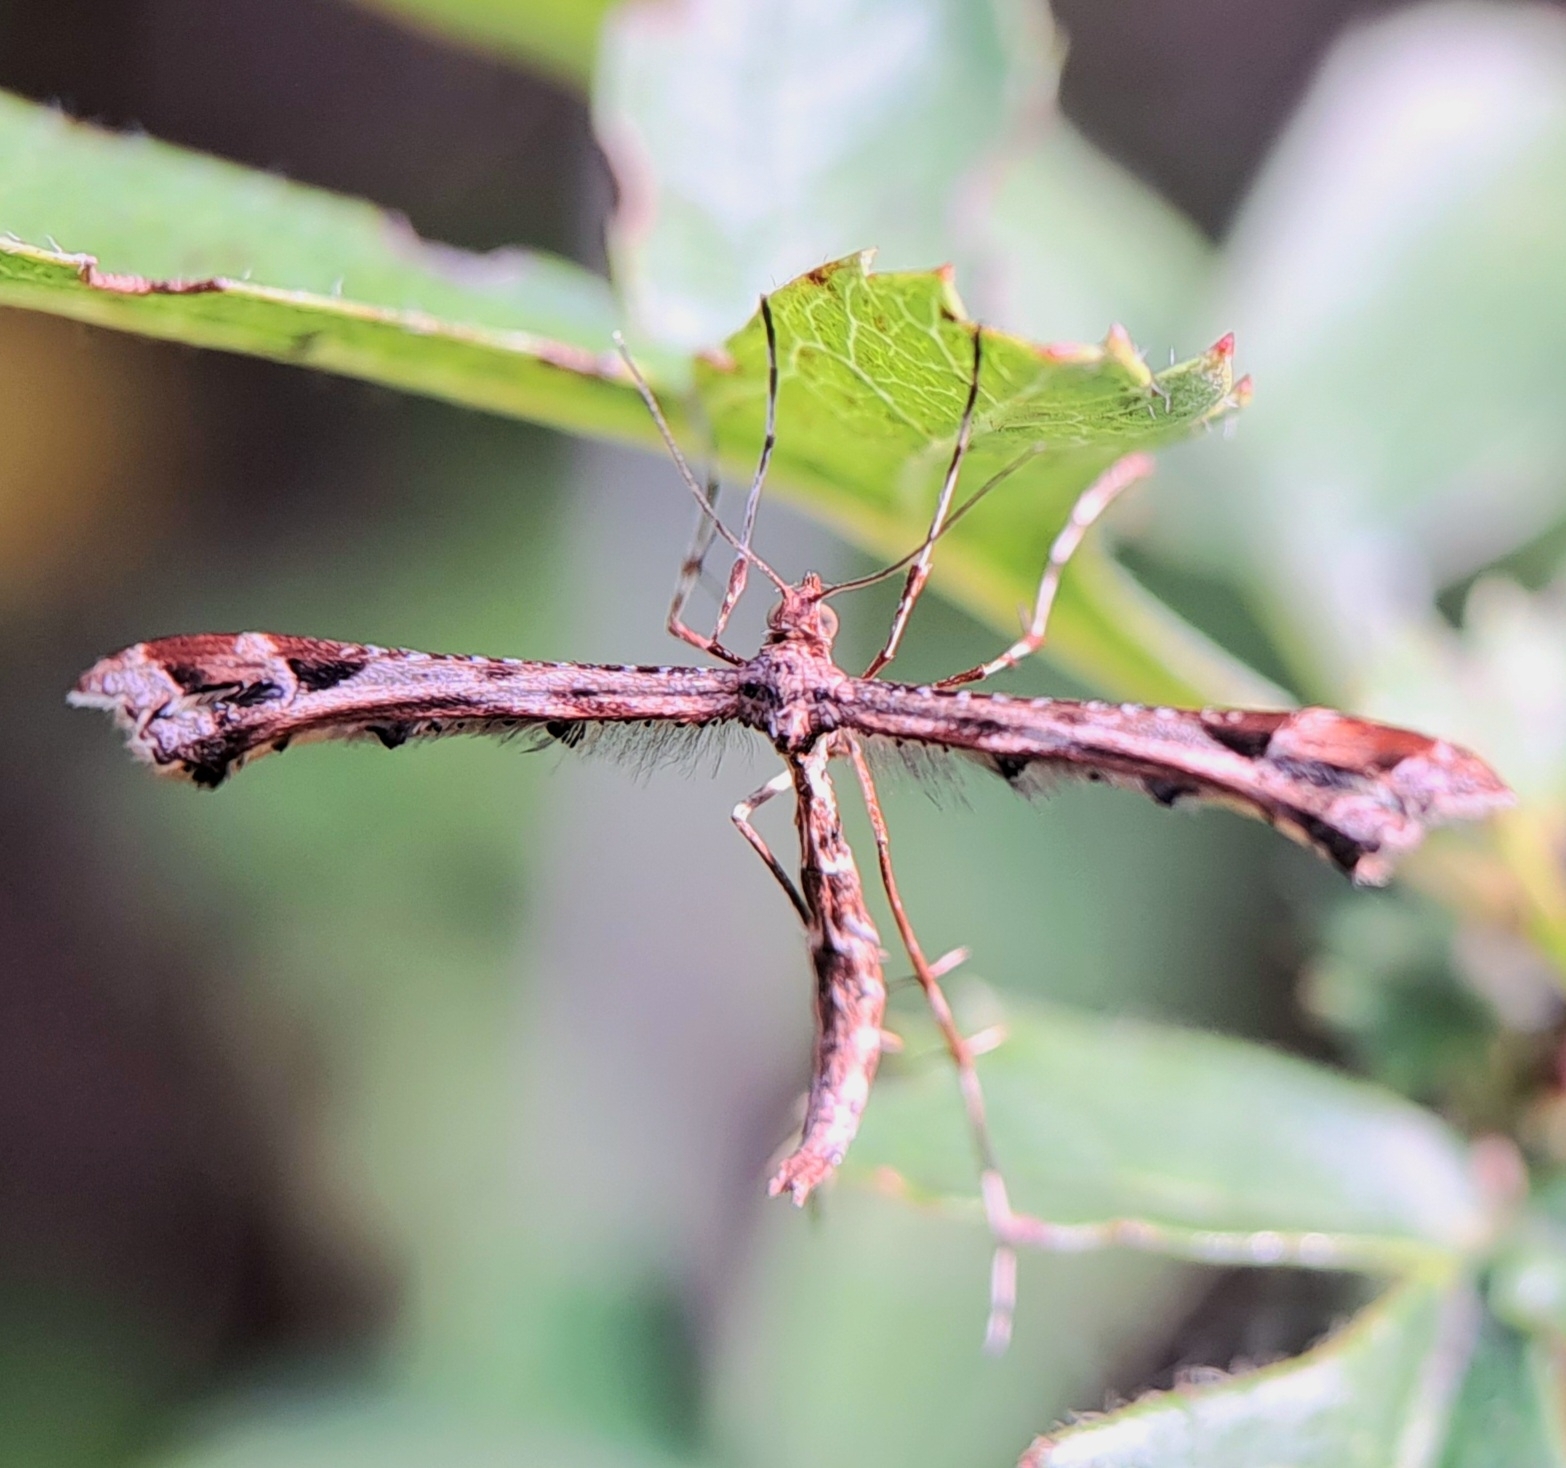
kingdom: Animalia
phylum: Arthropoda
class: Insecta
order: Lepidoptera
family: Pterophoridae
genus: Amblyptilia
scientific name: Amblyptilia acanthadactyla
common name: Beautiful plume
